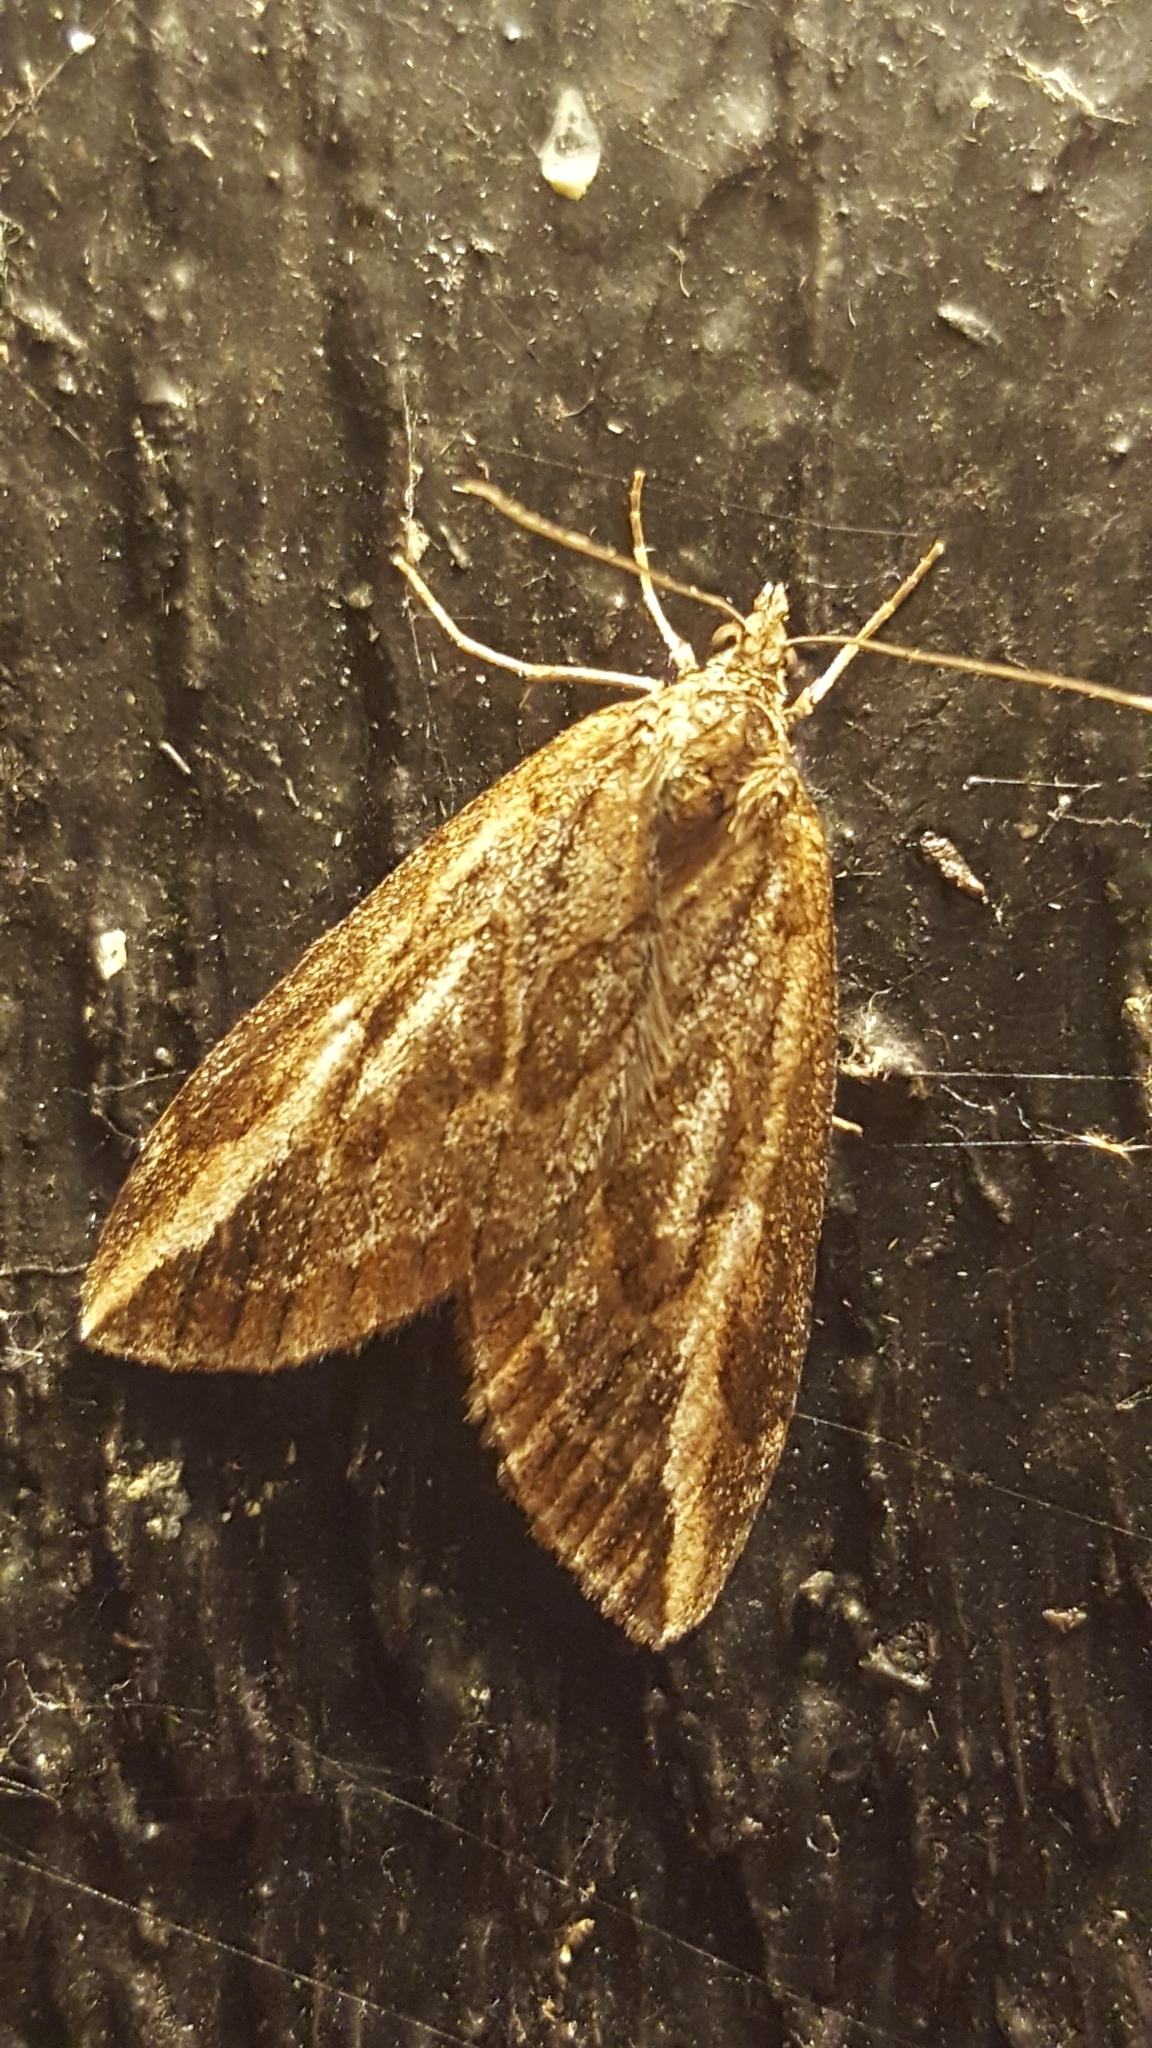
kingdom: Animalia
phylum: Arthropoda
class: Insecta
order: Lepidoptera
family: Geometridae
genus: Chesias
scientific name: Chesias legatella
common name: Streak
